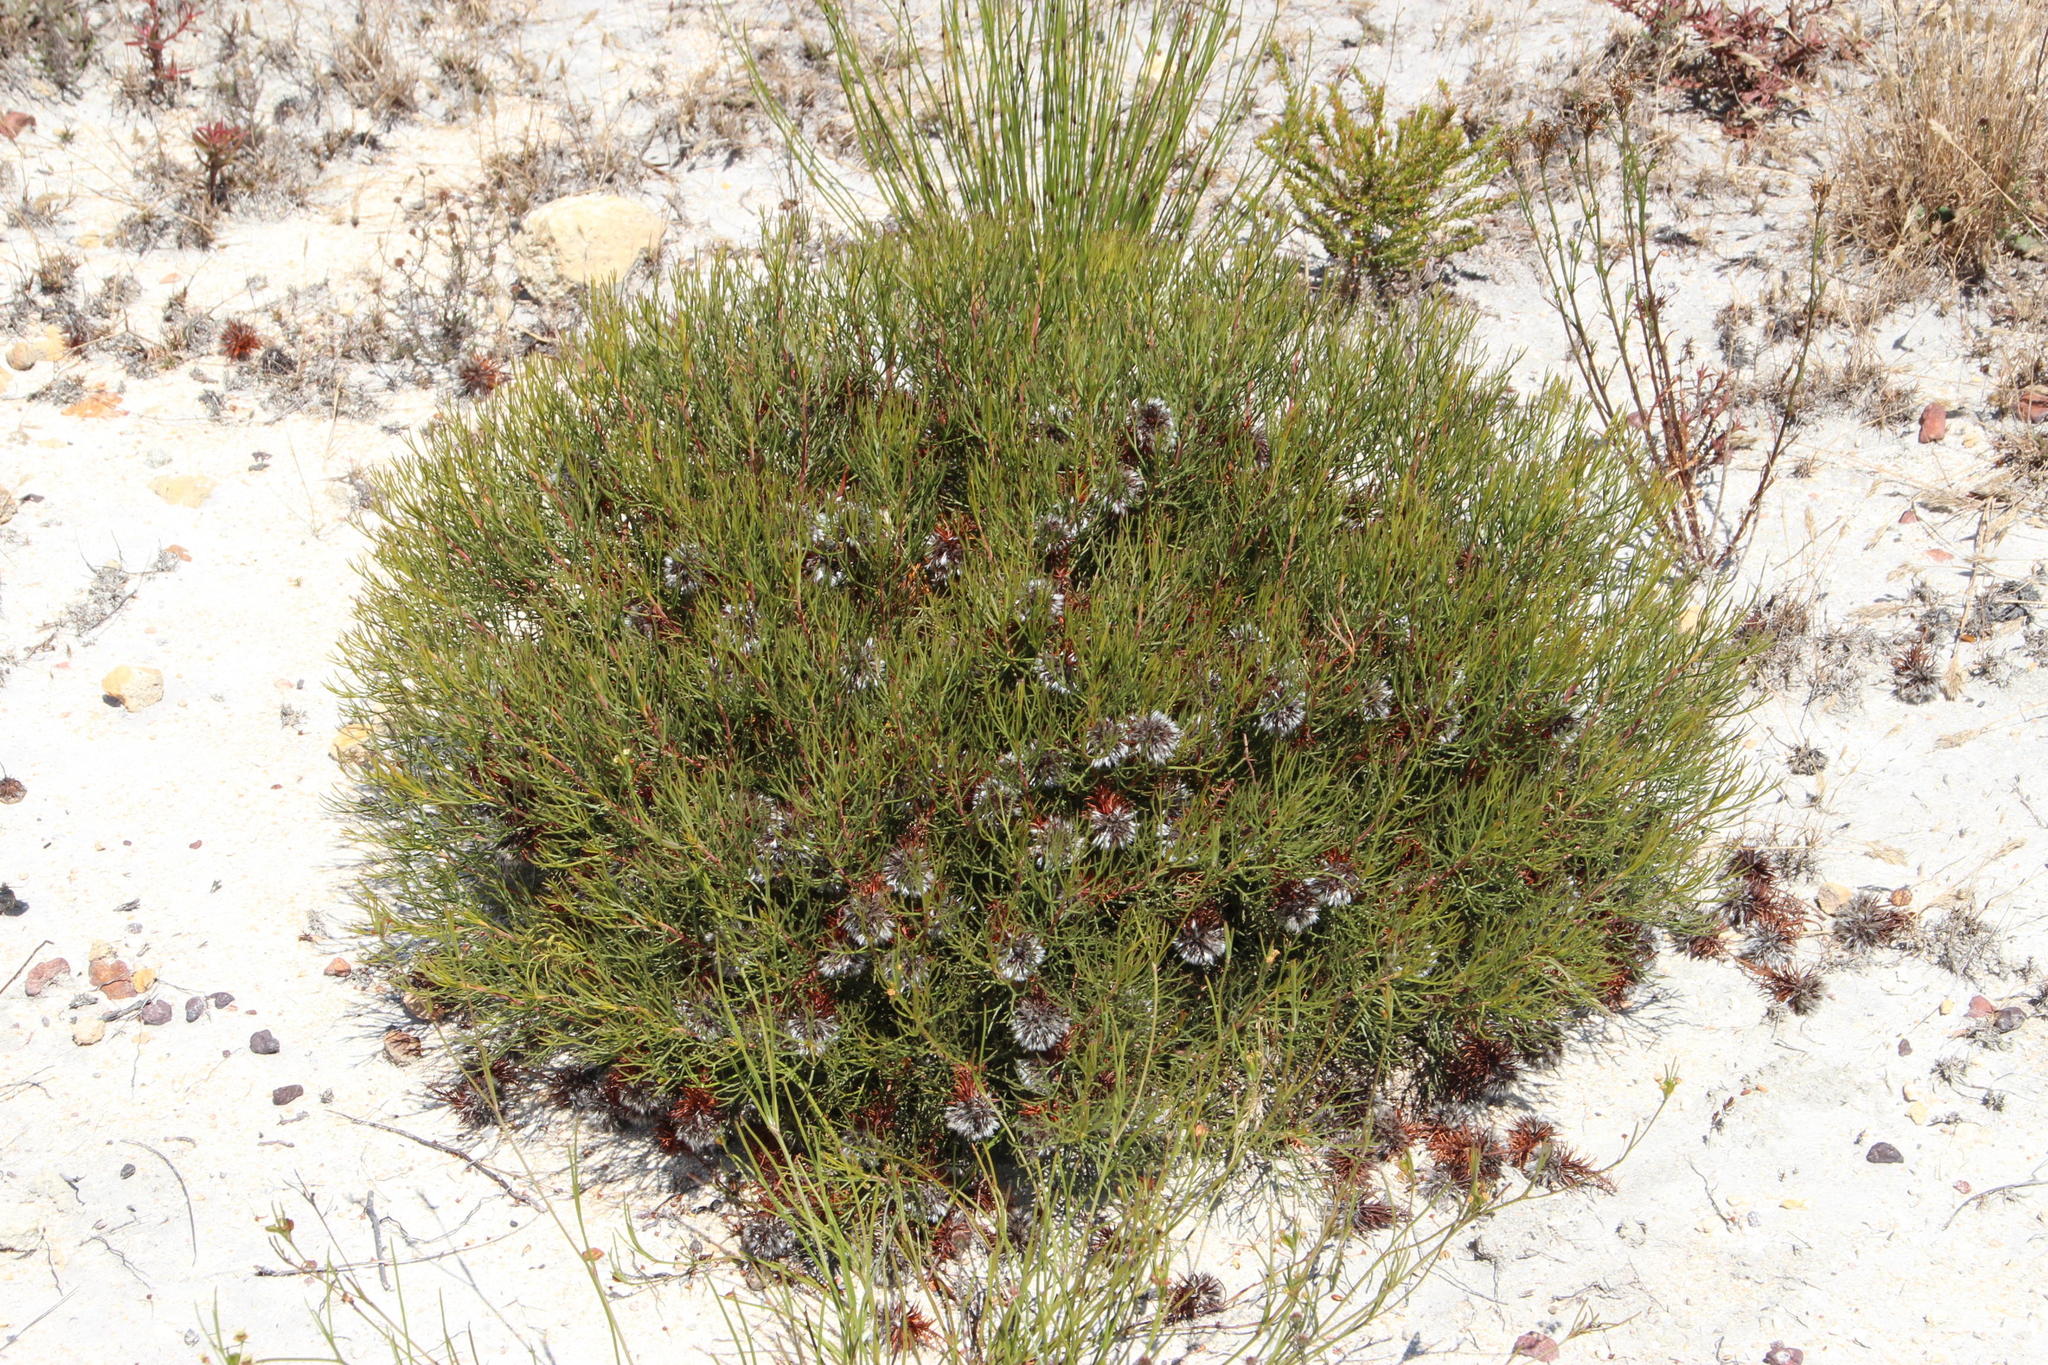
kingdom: Plantae
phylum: Tracheophyta
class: Magnoliopsida
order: Proteales
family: Proteaceae
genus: Serruria
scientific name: Serruria phylicoides
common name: Bearded spiderhead
